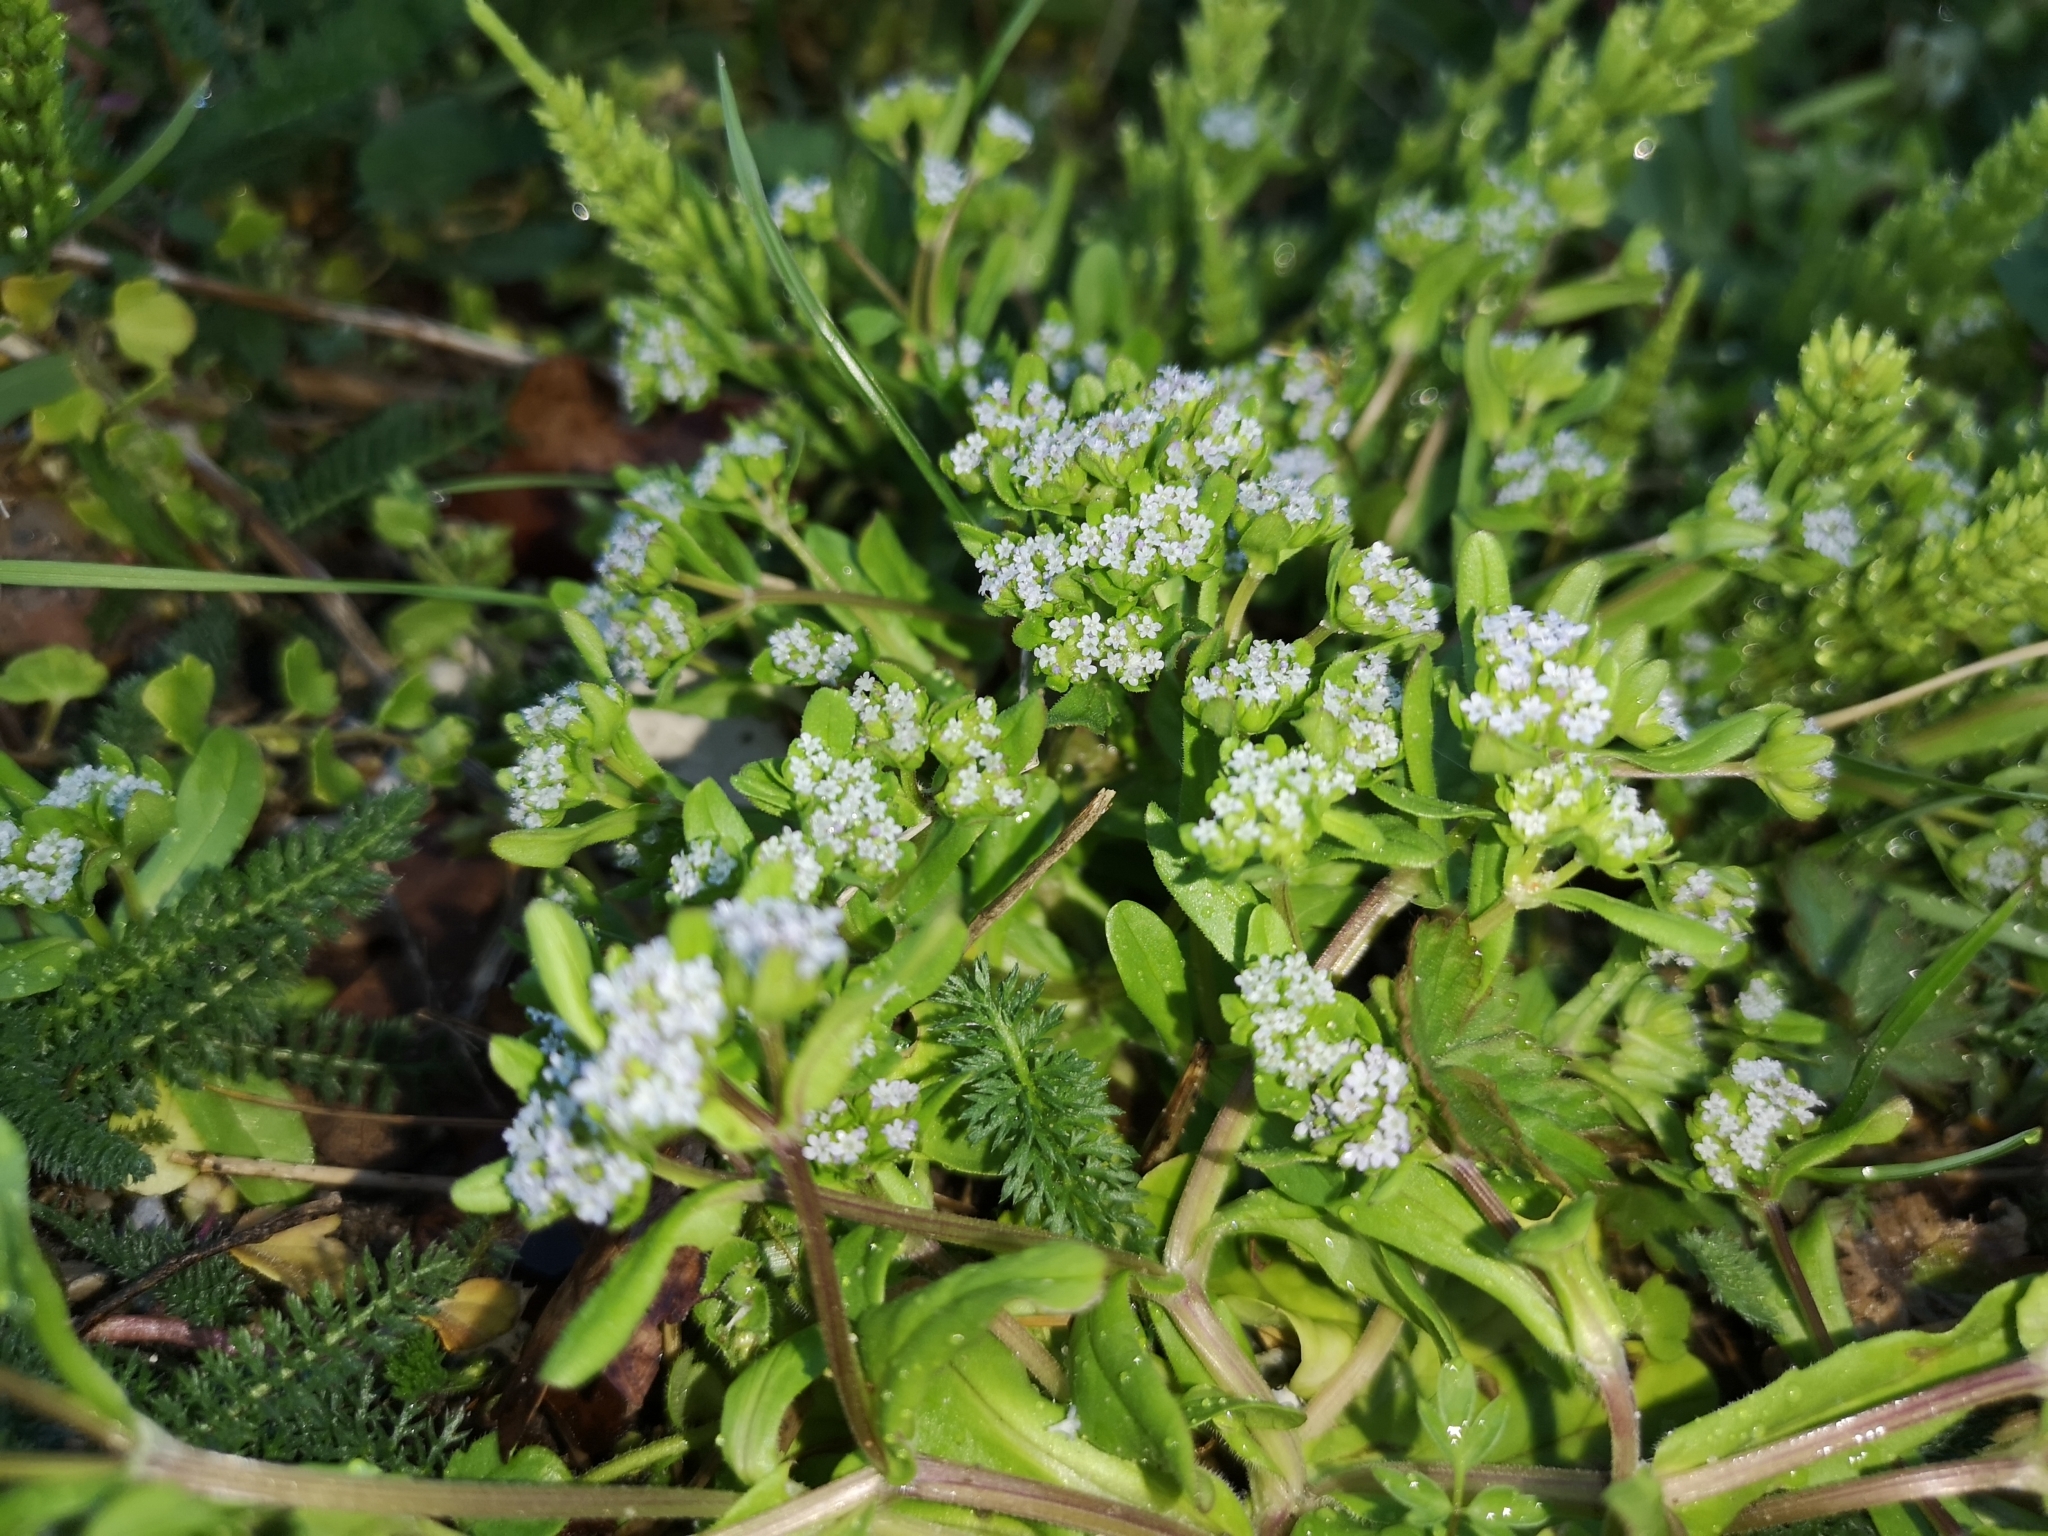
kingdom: Plantae
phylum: Tracheophyta
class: Magnoliopsida
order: Dipsacales
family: Caprifoliaceae
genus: Valerianella
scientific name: Valerianella locusta
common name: Common cornsalad
